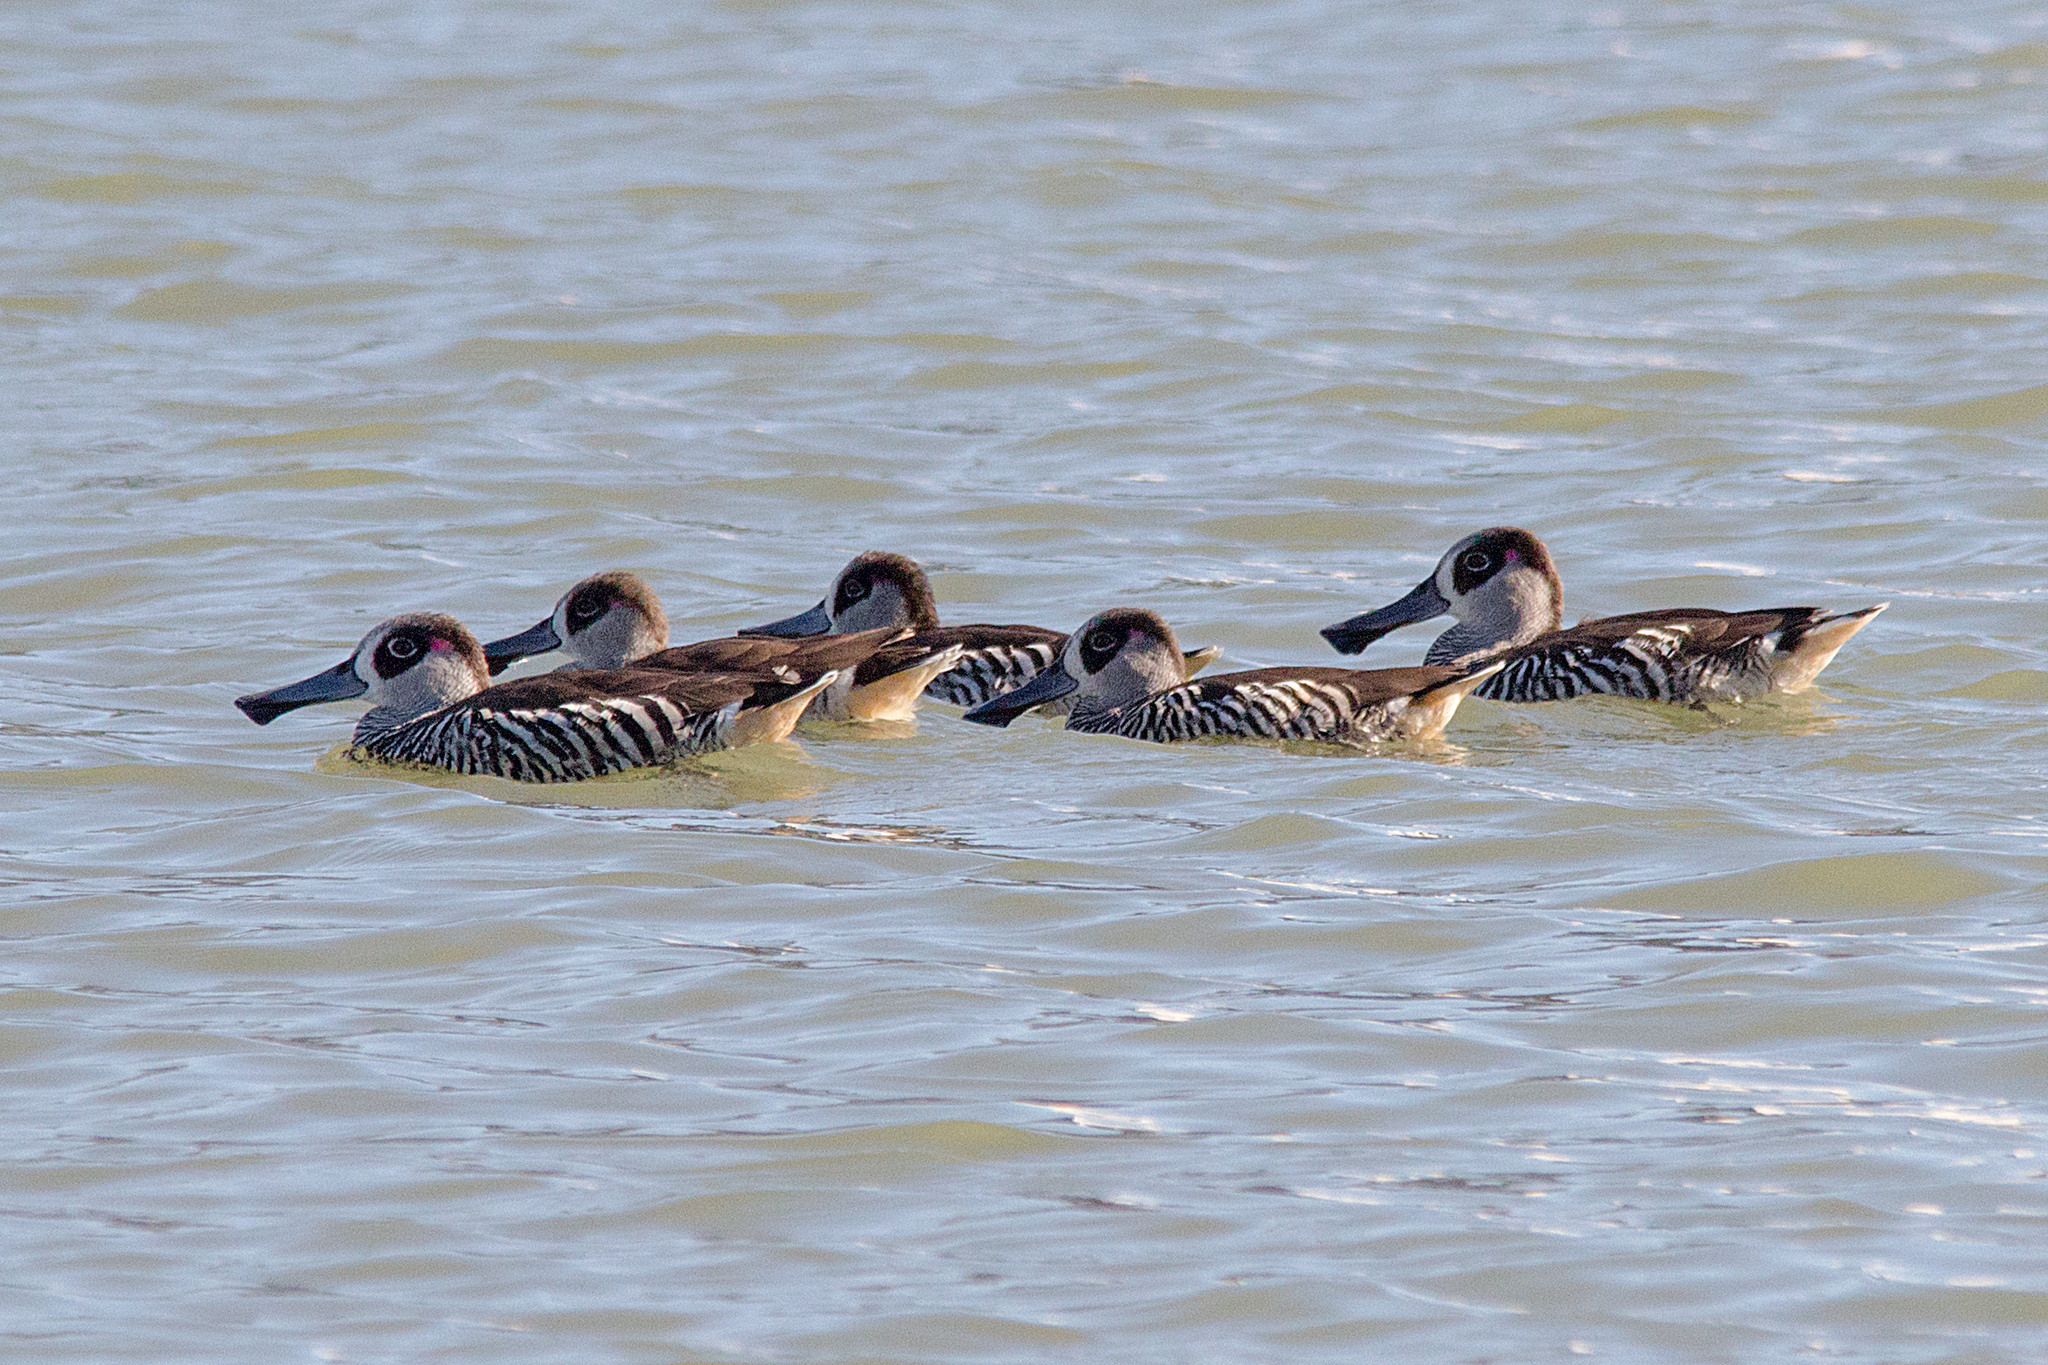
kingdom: Animalia
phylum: Chordata
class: Aves
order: Anseriformes
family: Anatidae
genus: Malacorhynchus
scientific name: Malacorhynchus membranaceus
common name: Pink-eared duck
